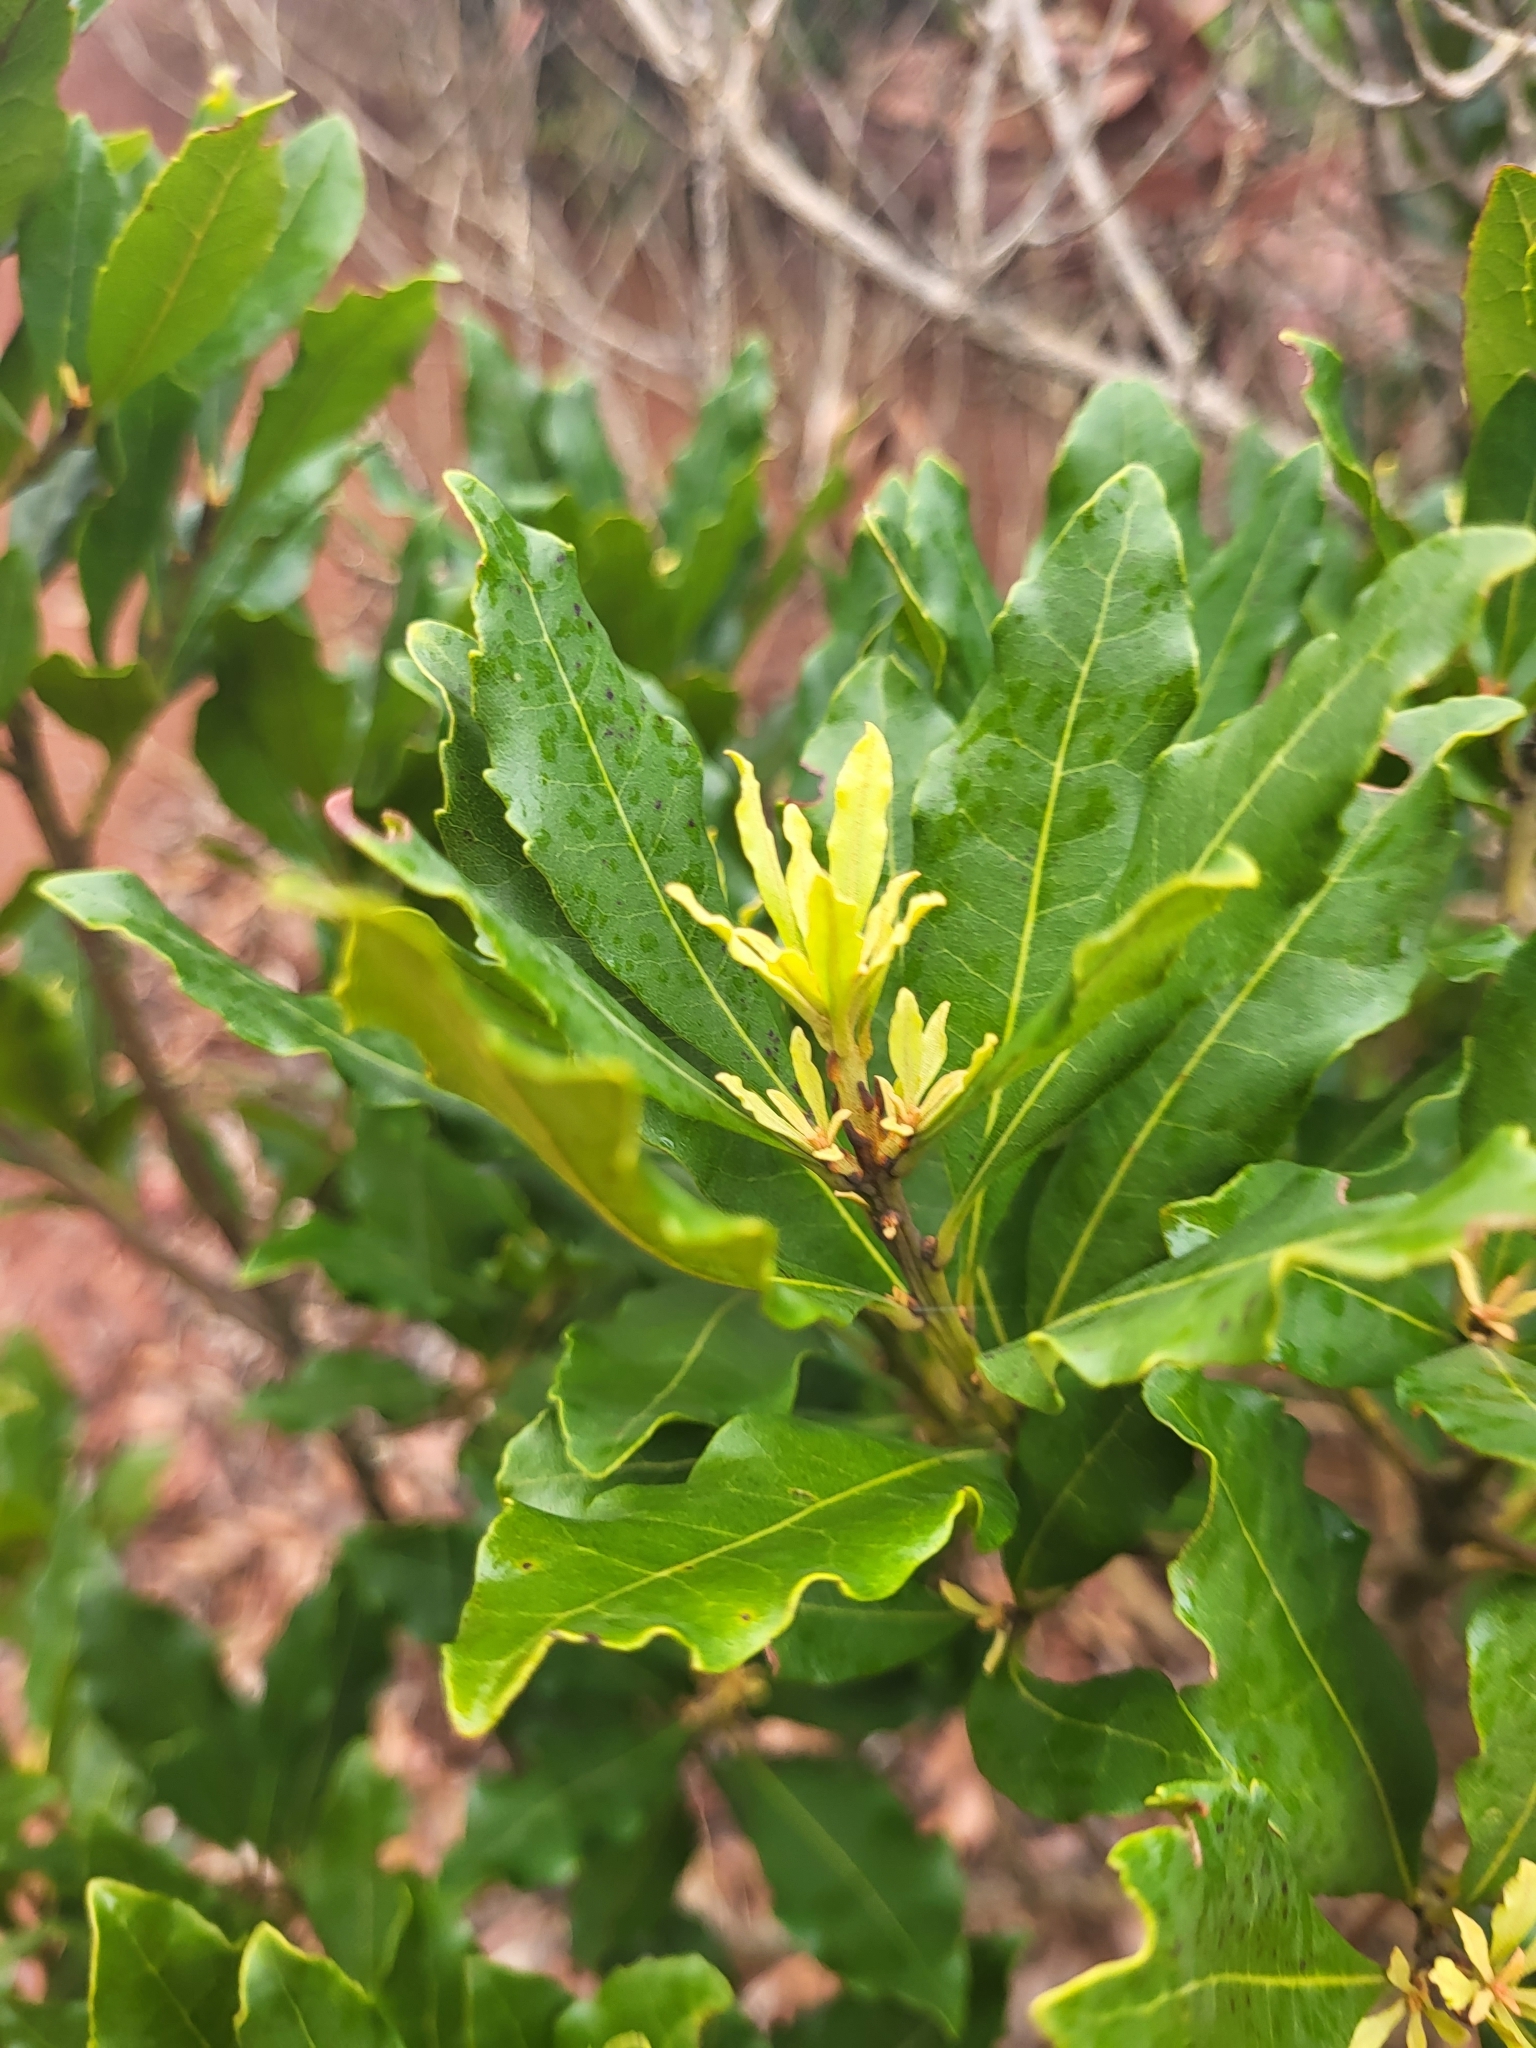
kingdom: Plantae
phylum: Tracheophyta
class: Magnoliopsida
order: Fagales
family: Myricaceae
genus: Morella
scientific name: Morella faya
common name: Firetree
